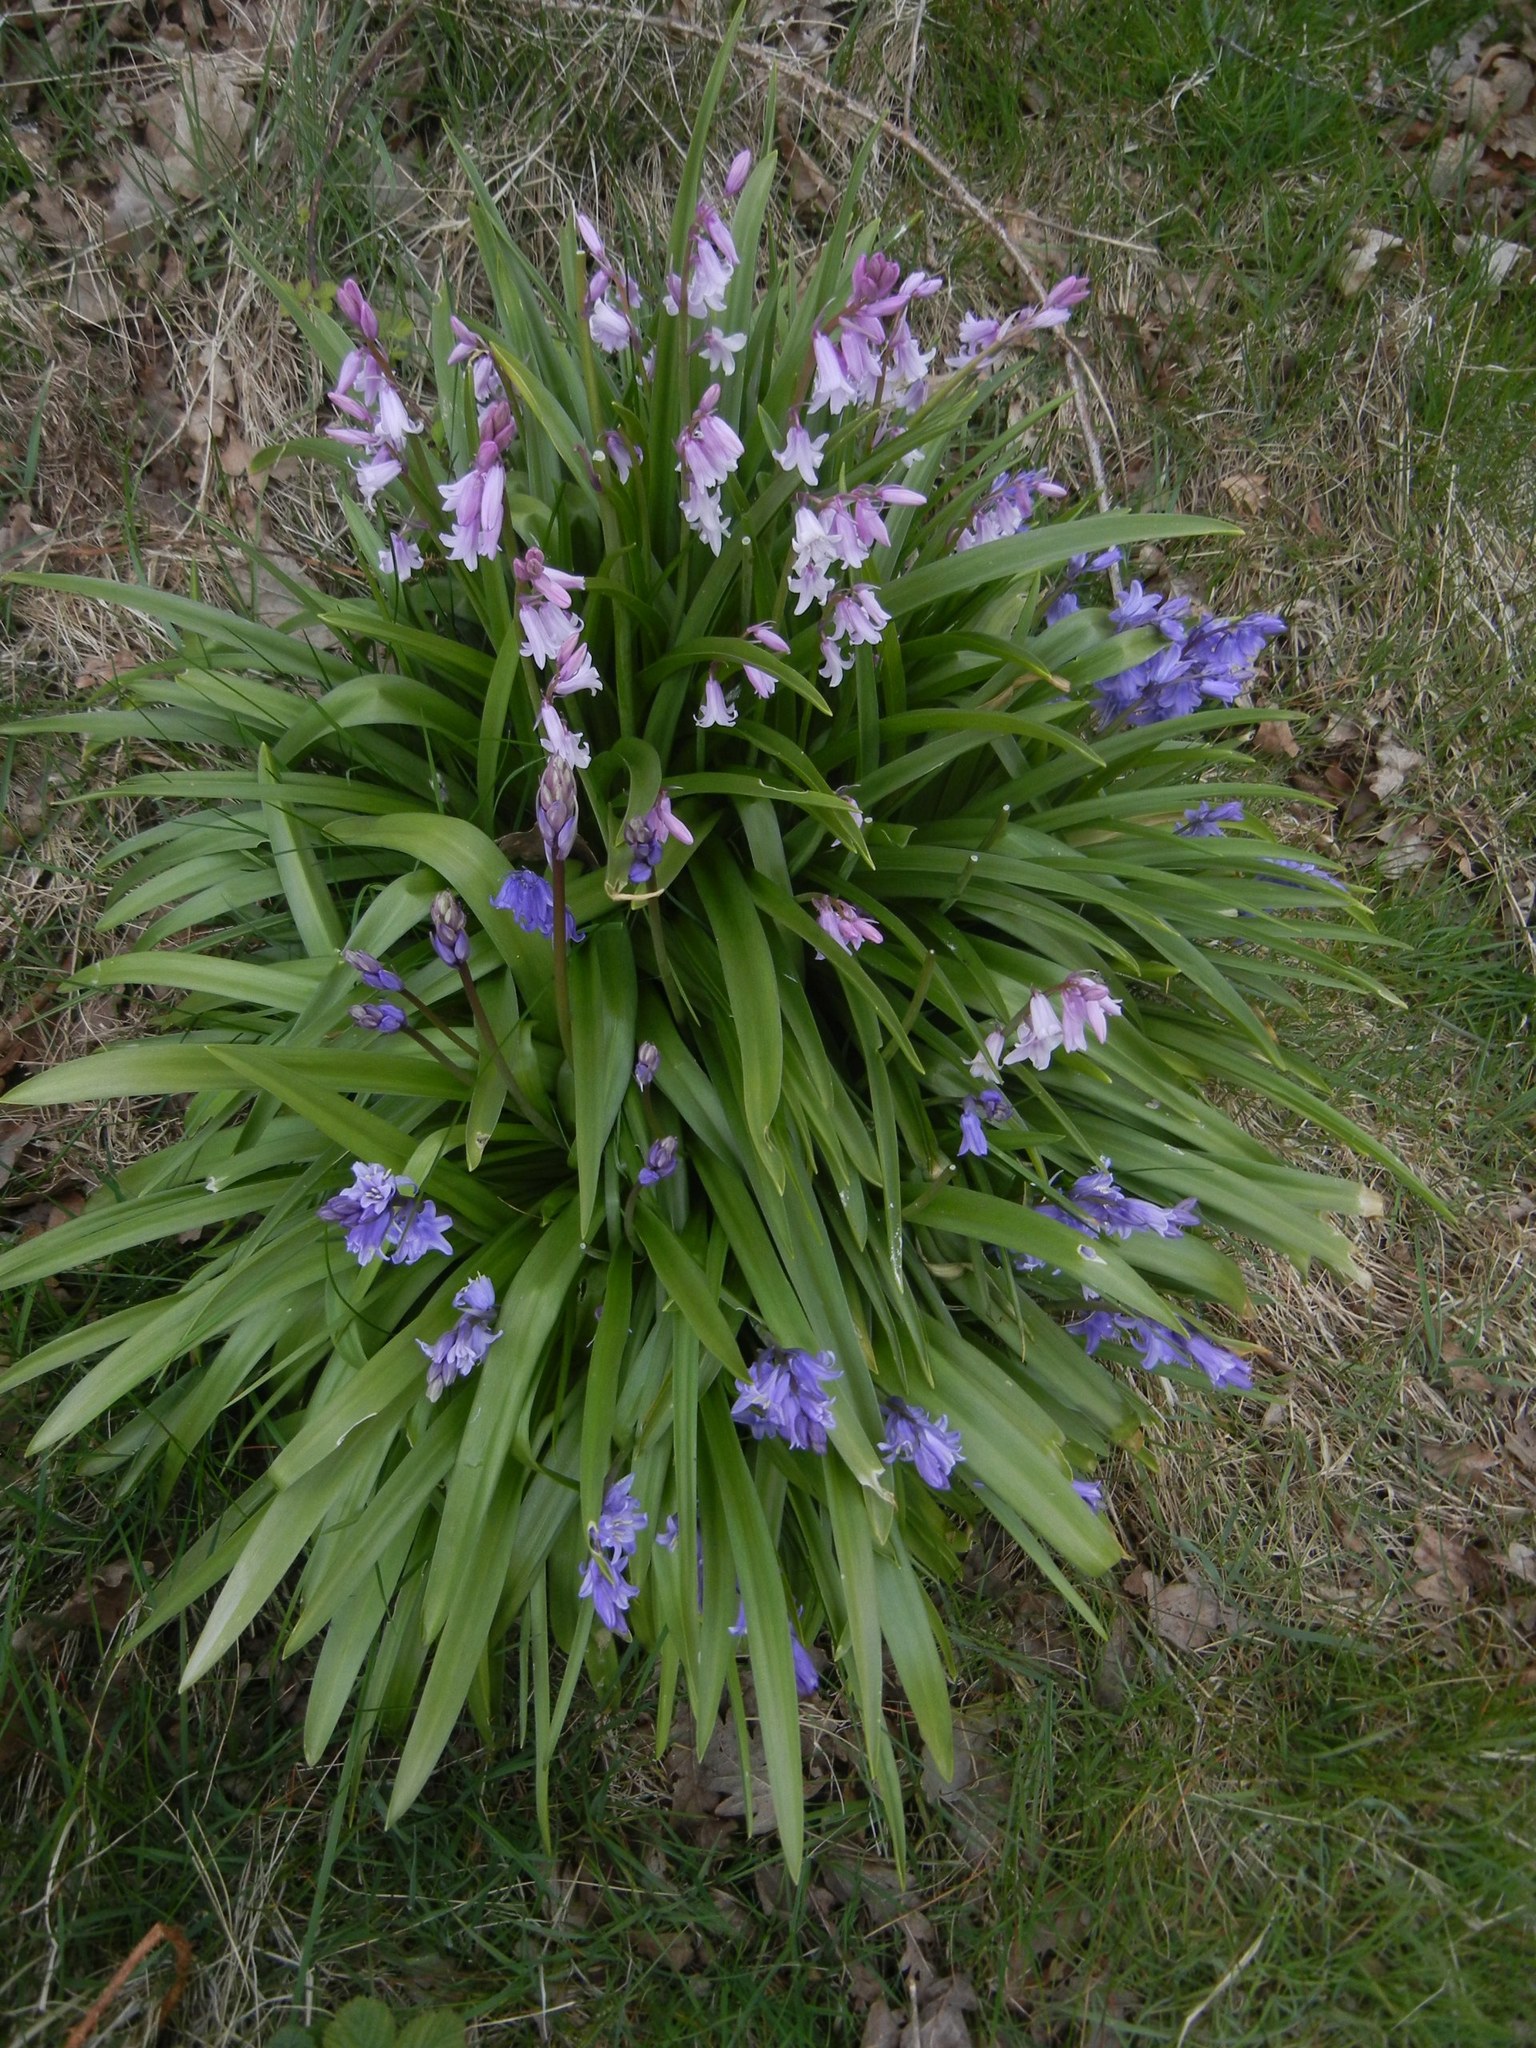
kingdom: Plantae
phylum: Tracheophyta
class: Liliopsida
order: Asparagales
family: Asparagaceae
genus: Hyacinthoides
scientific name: Hyacinthoides massartiana
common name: Hyacinthoides
